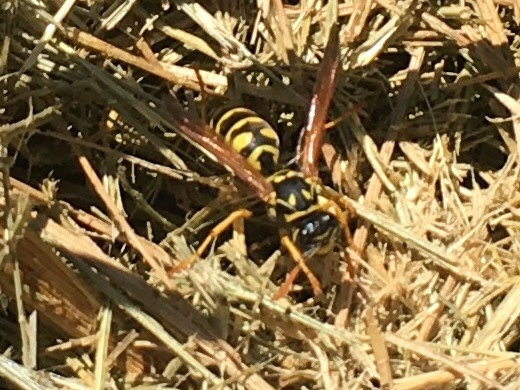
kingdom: Animalia
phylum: Arthropoda
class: Insecta
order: Hymenoptera
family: Eumenidae
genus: Polistes
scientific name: Polistes dominula
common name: Paper wasp
